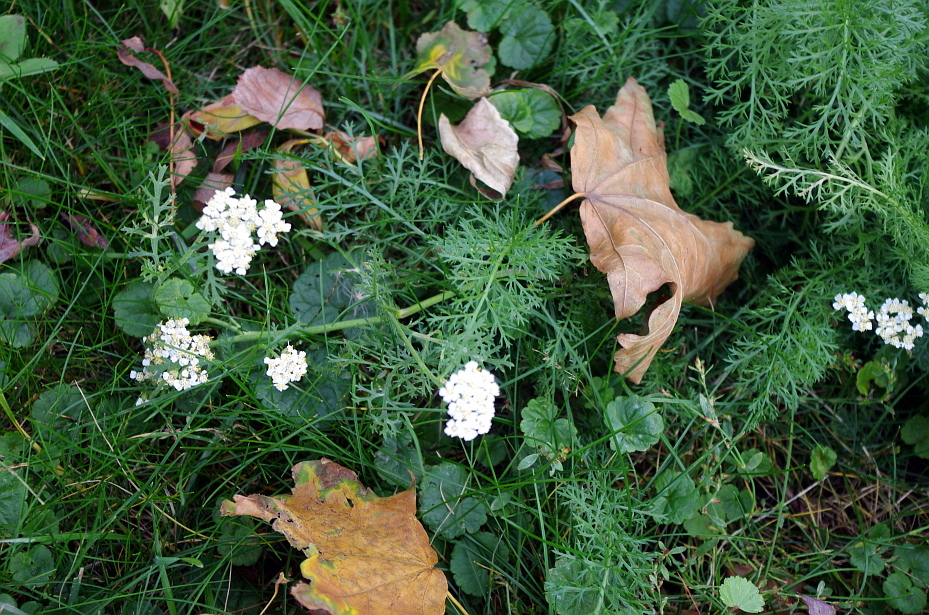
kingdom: Plantae
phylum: Tracheophyta
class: Magnoliopsida
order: Asterales
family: Asteraceae
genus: Achillea
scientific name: Achillea millefolium
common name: Yarrow
